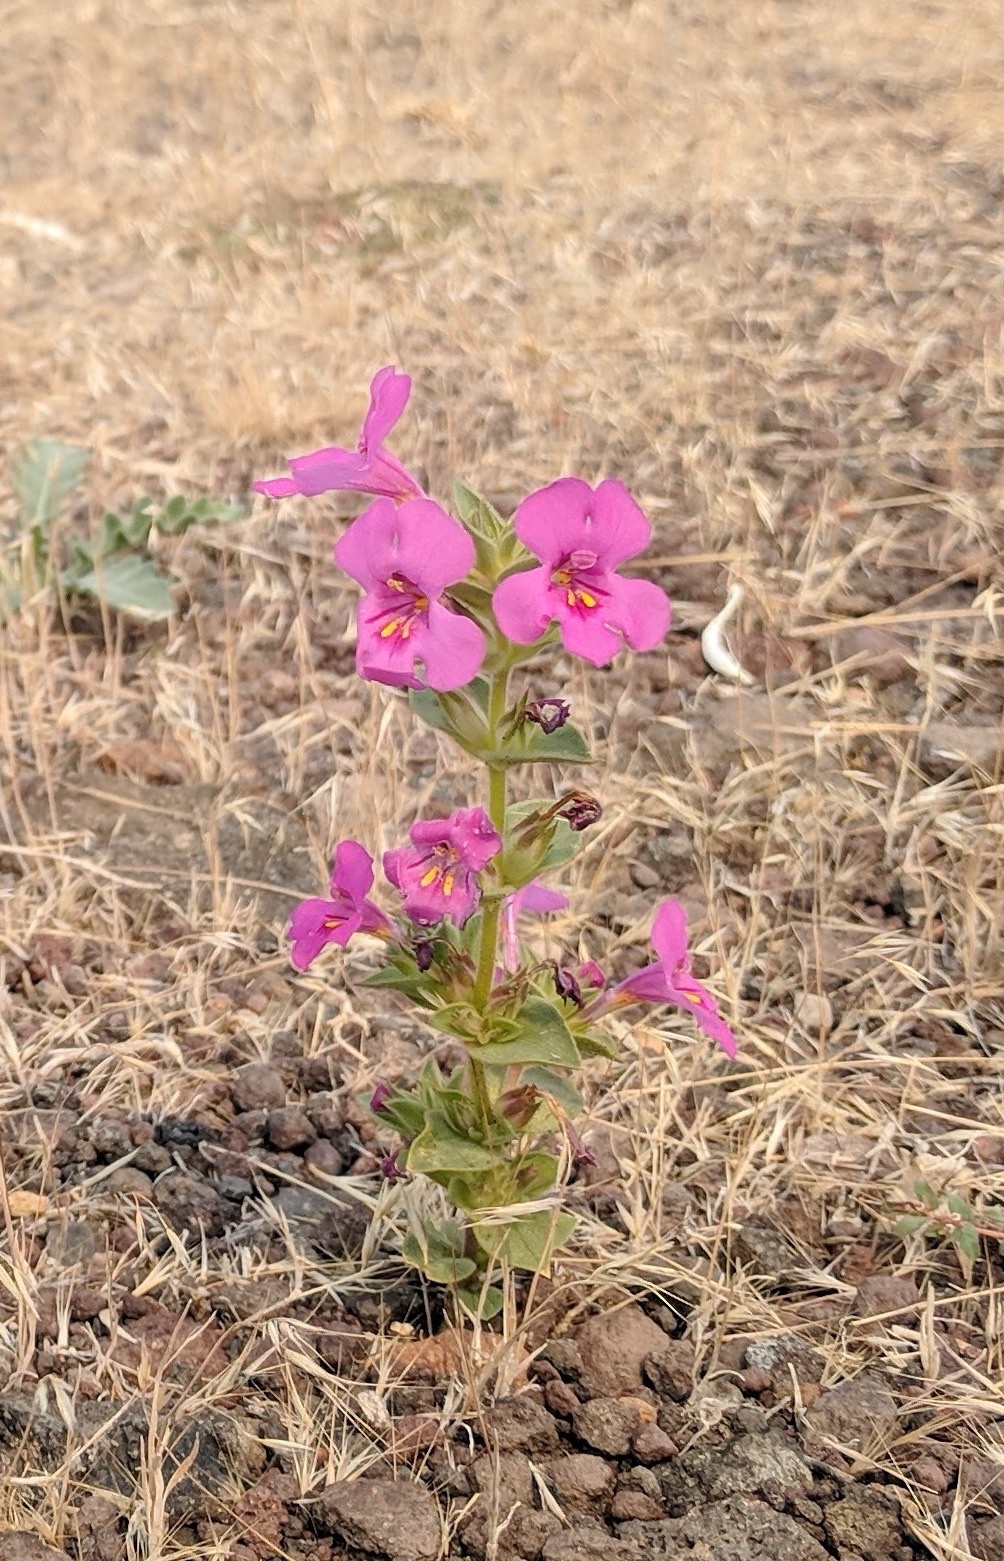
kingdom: Plantae
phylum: Tracheophyta
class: Magnoliopsida
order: Lamiales
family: Phrymaceae
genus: Diplacus
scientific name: Diplacus cusickioides
